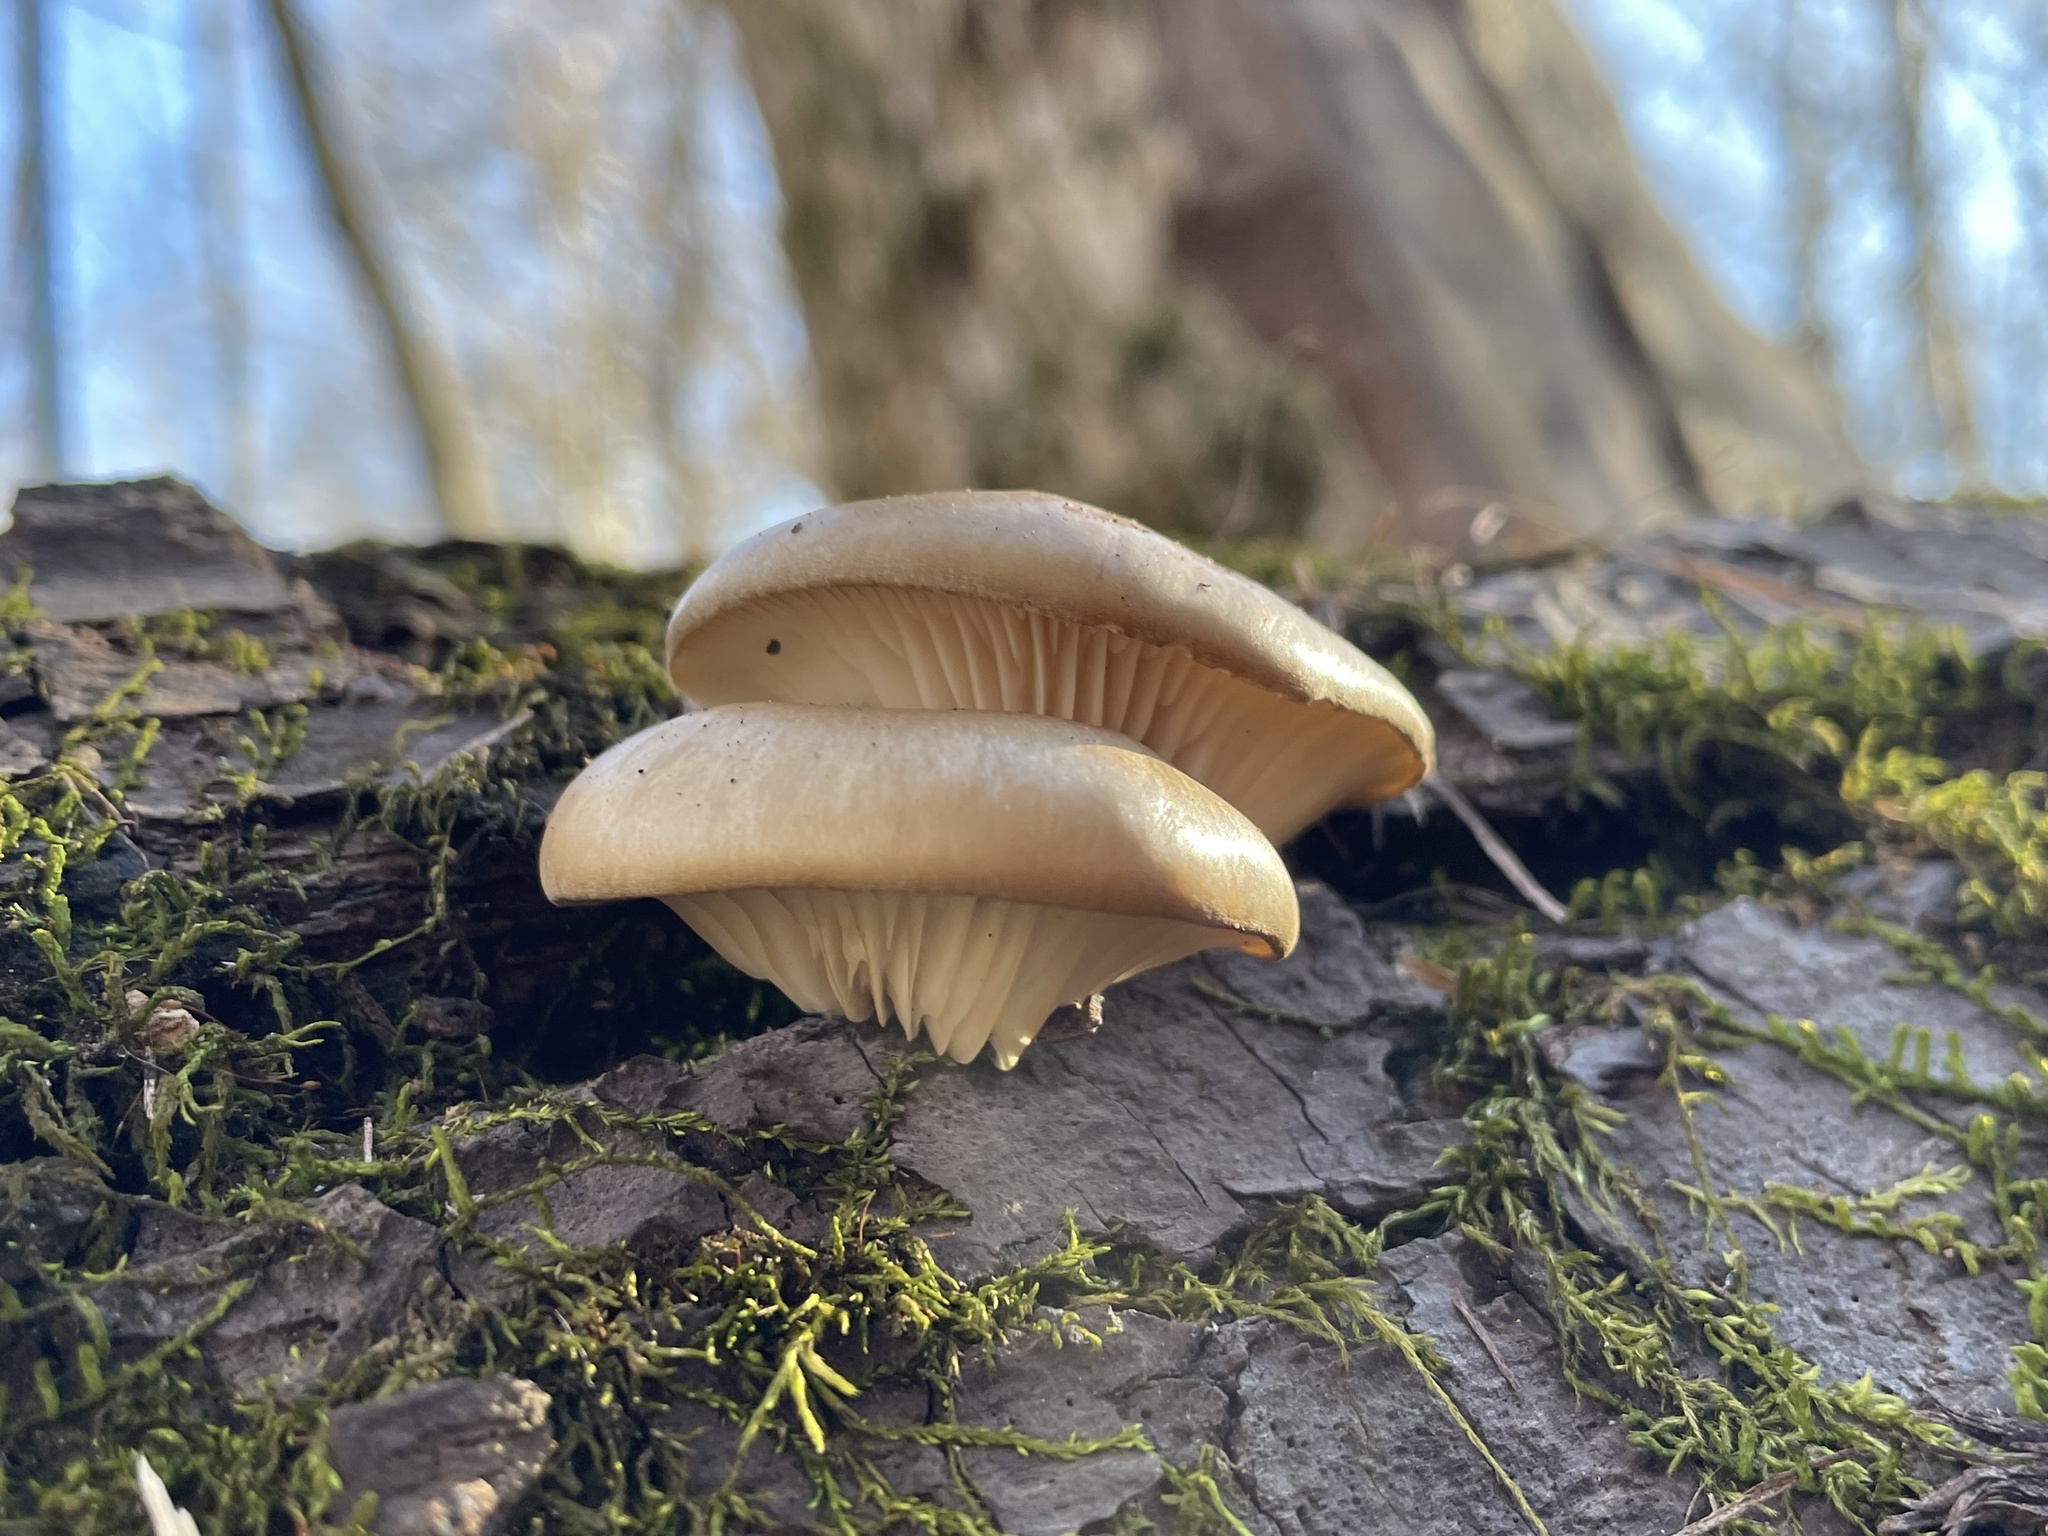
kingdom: Fungi
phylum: Basidiomycota
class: Agaricomycetes
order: Agaricales
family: Pleurotaceae
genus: Pleurotus
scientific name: Pleurotus ostreatus
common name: Oyster mushroom
